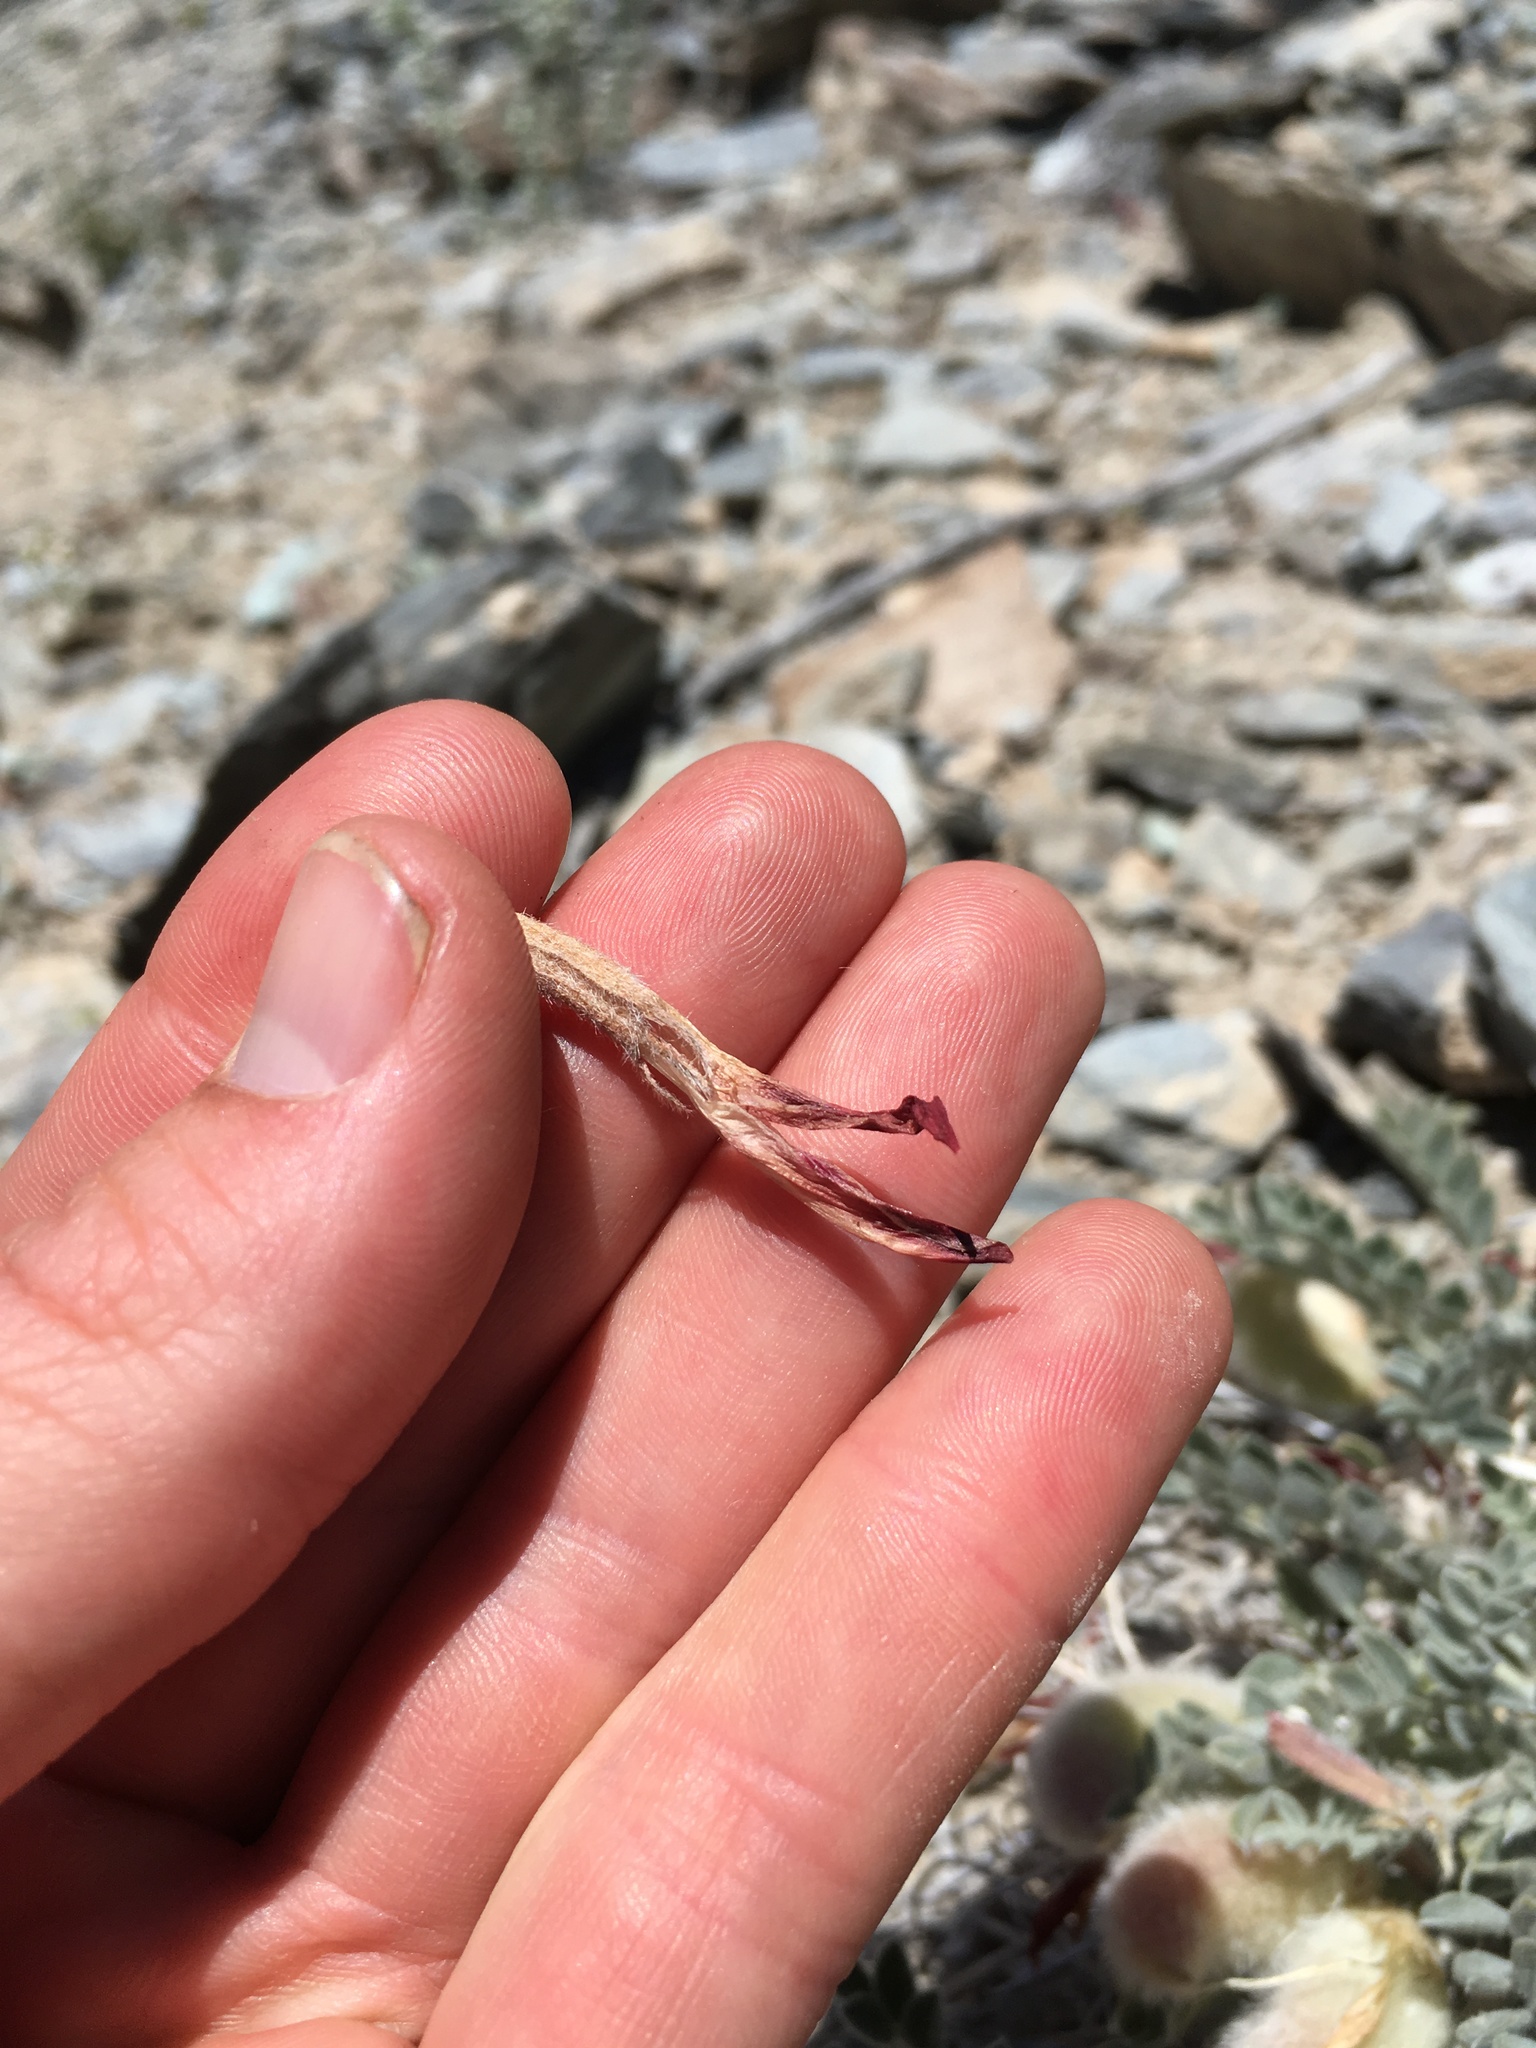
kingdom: Plantae
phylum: Tracheophyta
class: Magnoliopsida
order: Fabales
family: Fabaceae
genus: Astragalus
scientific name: Astragalus coccineus
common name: Scarlet milk-vetch
